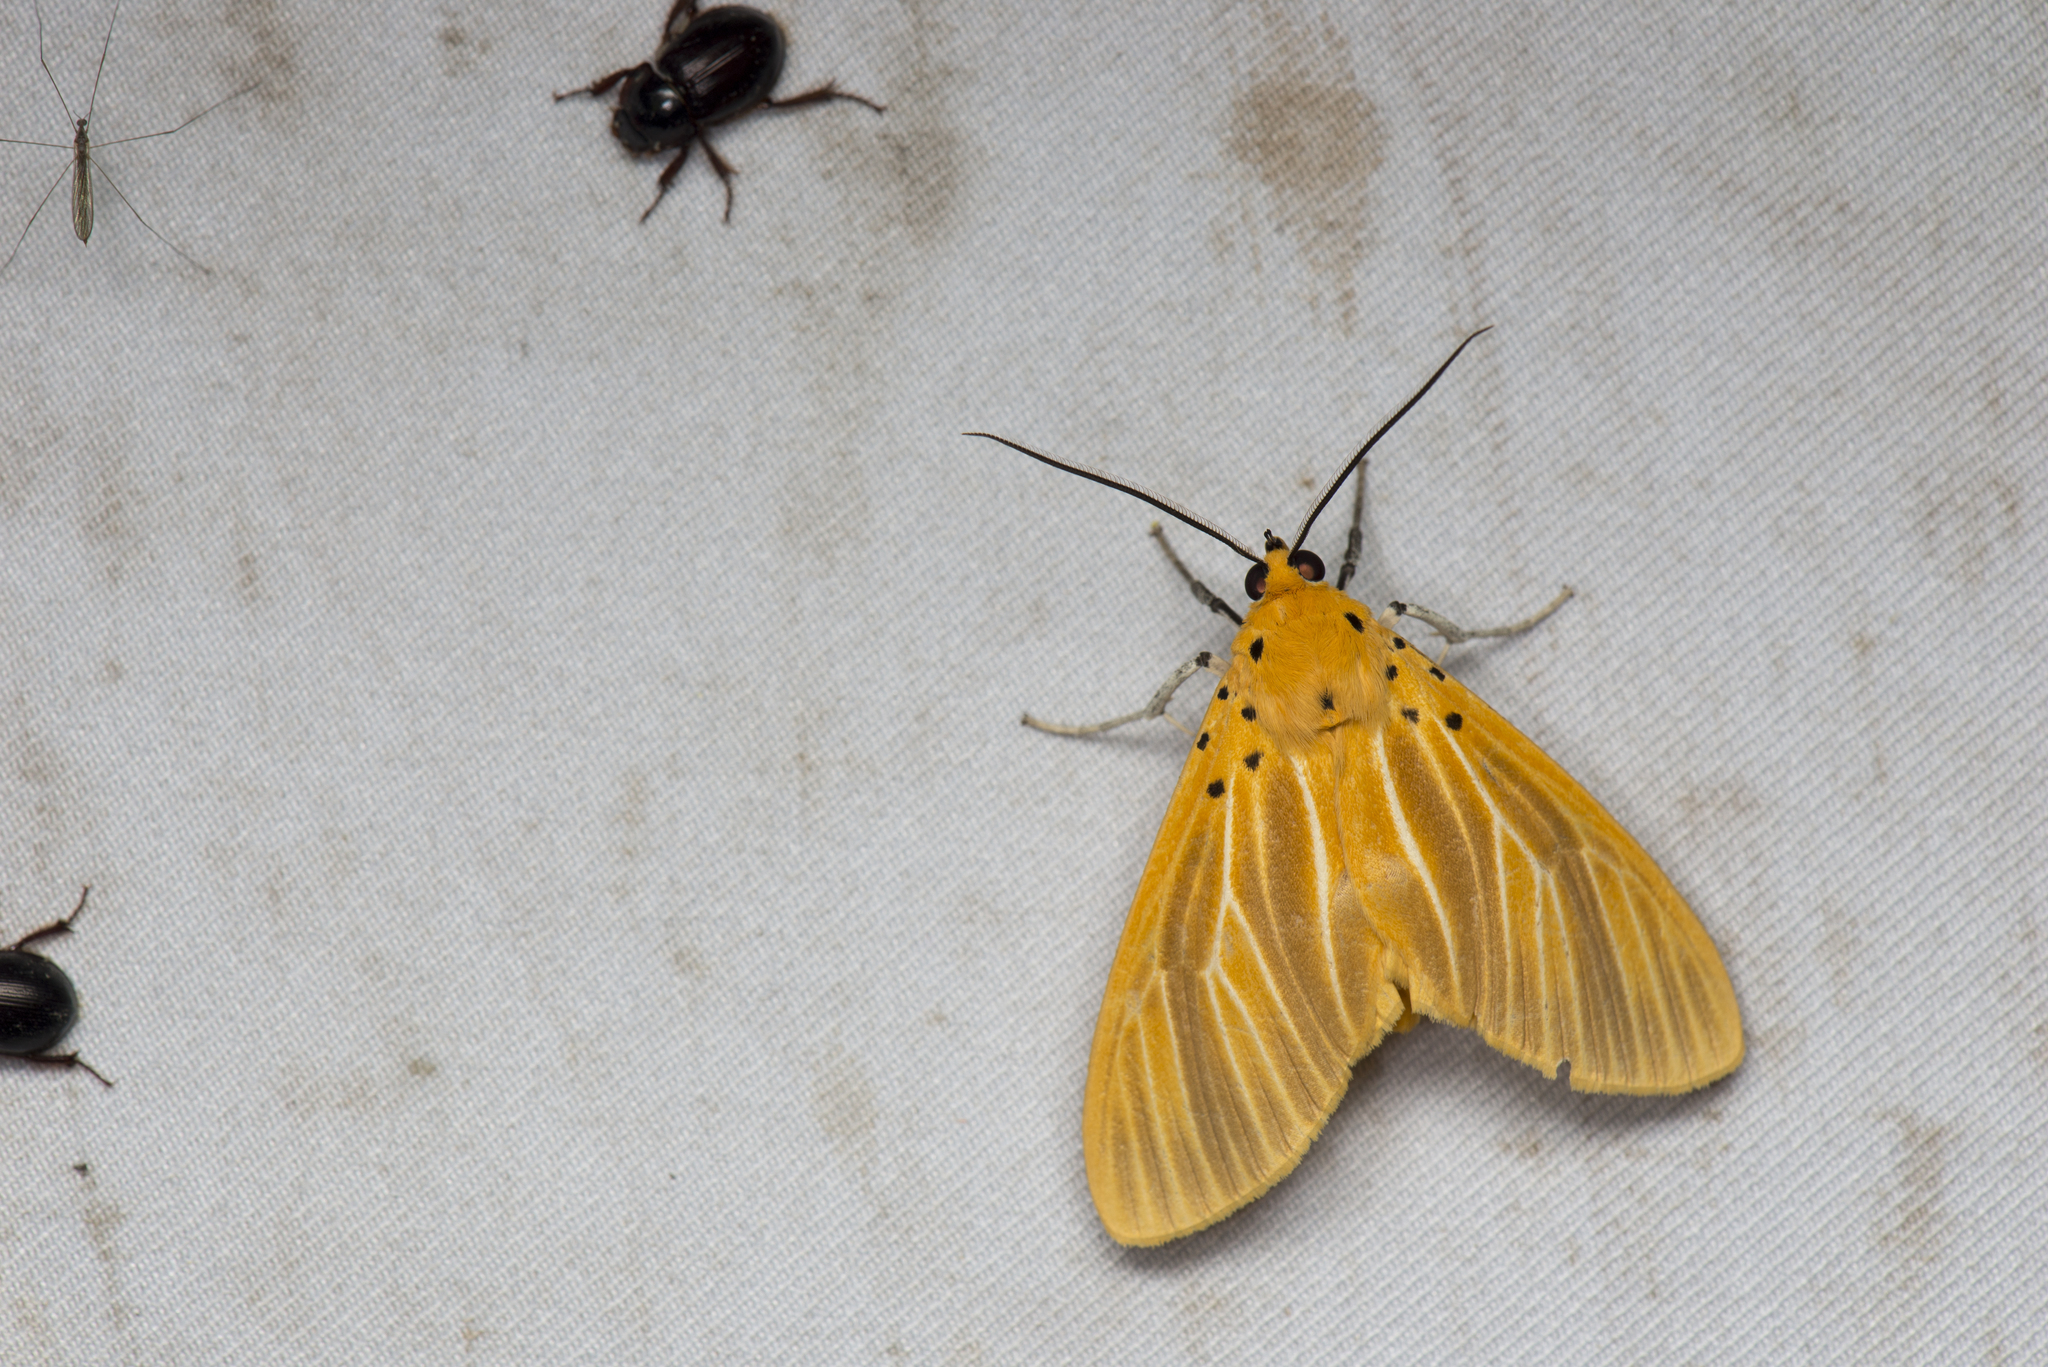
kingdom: Animalia
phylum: Arthropoda
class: Insecta
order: Lepidoptera
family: Erebidae
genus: Asota
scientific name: Asota egens
